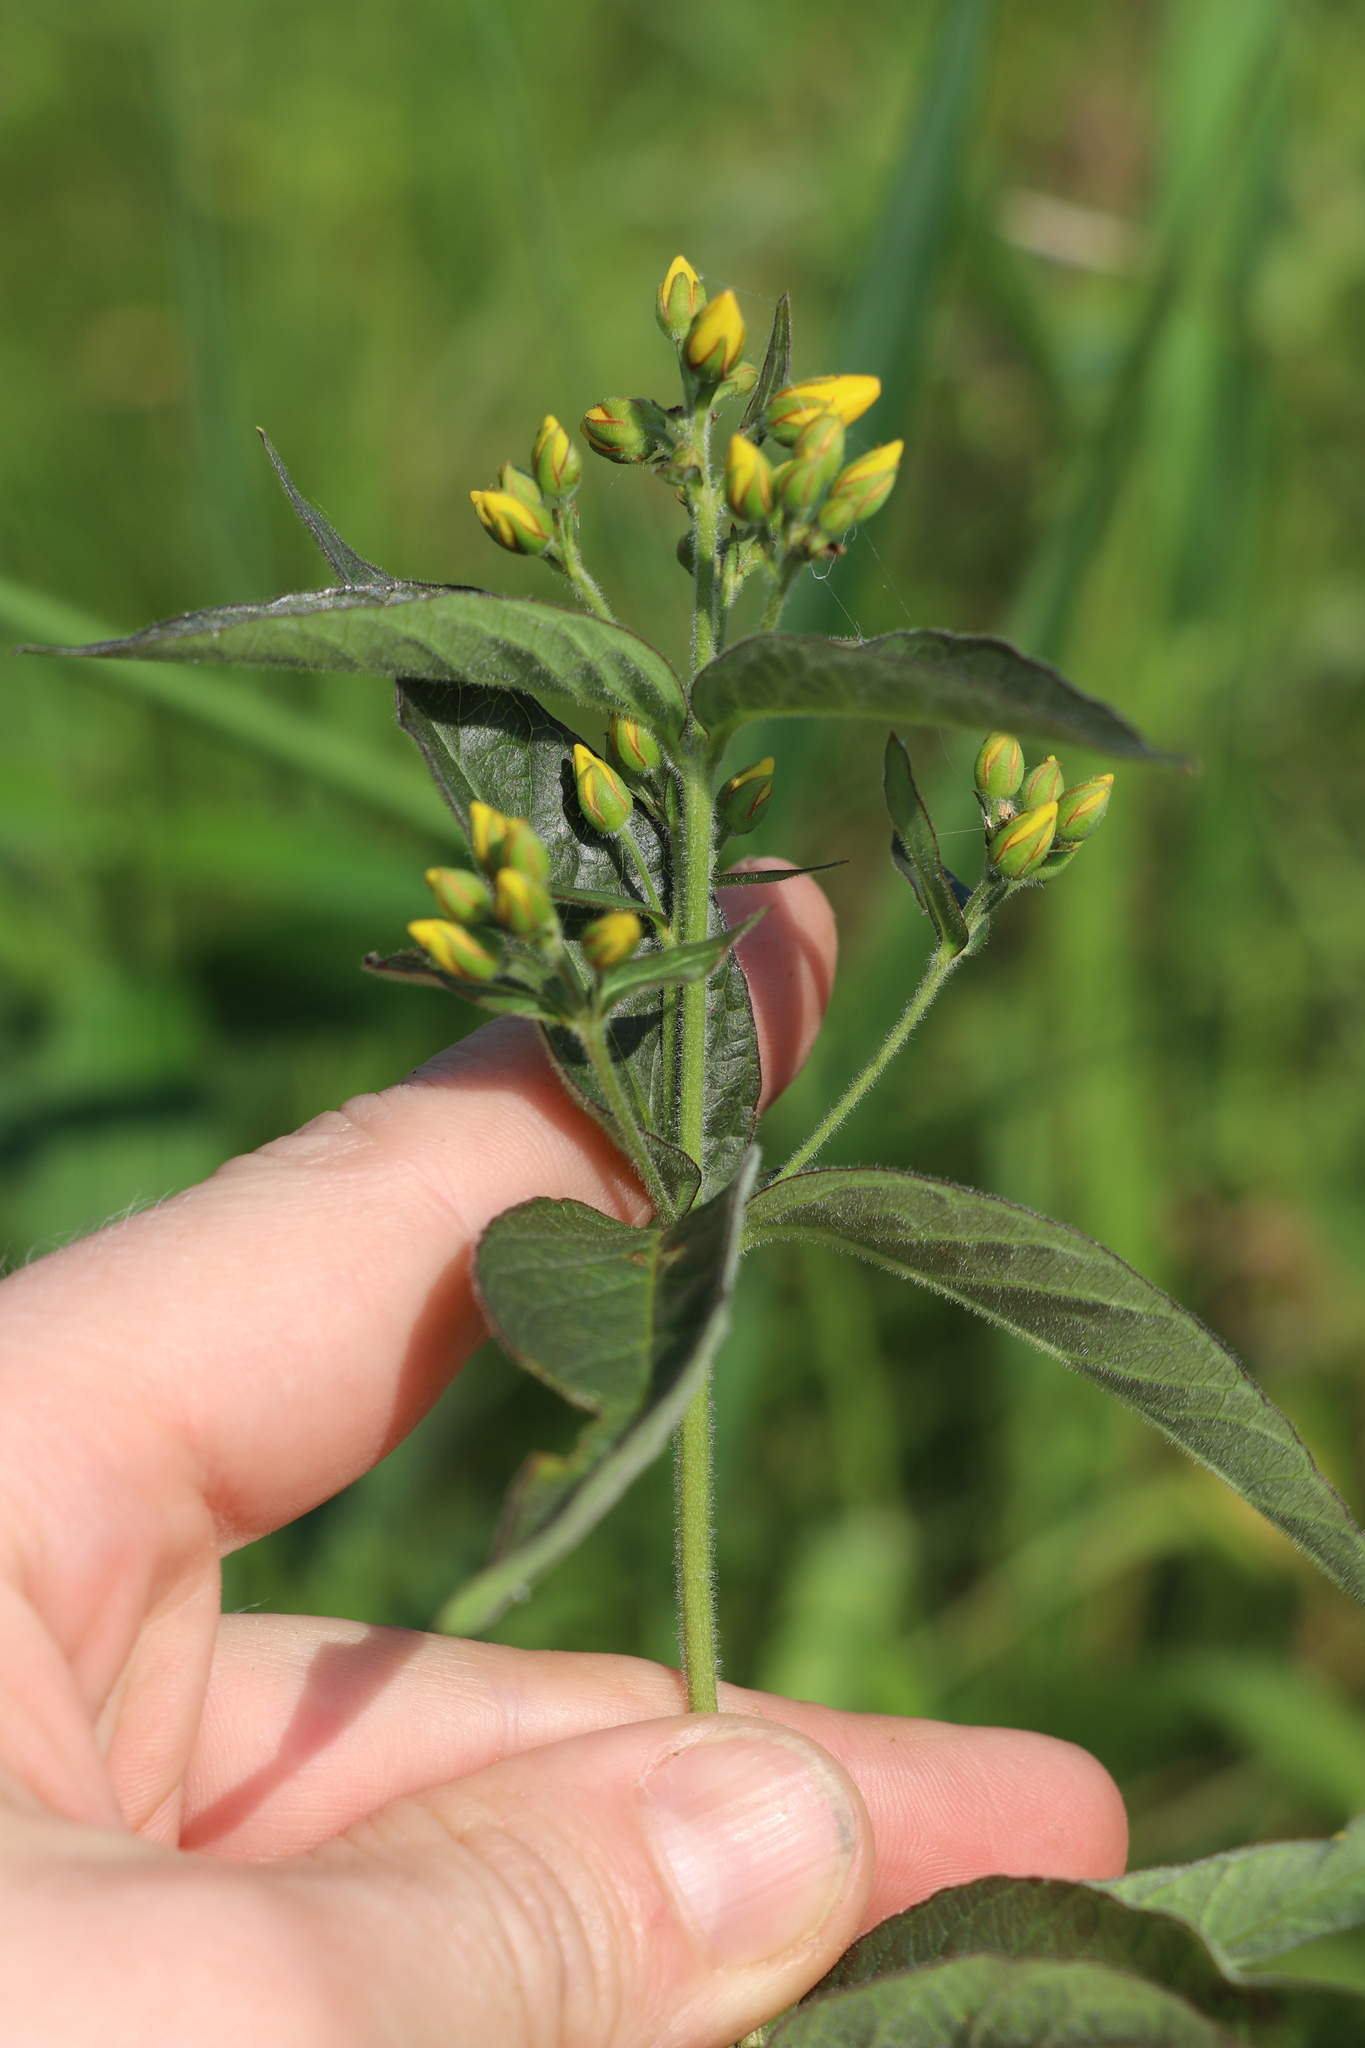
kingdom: Plantae
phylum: Tracheophyta
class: Magnoliopsida
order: Ericales
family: Primulaceae
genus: Lysimachia
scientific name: Lysimachia vulgaris
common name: Yellow loosestrife
